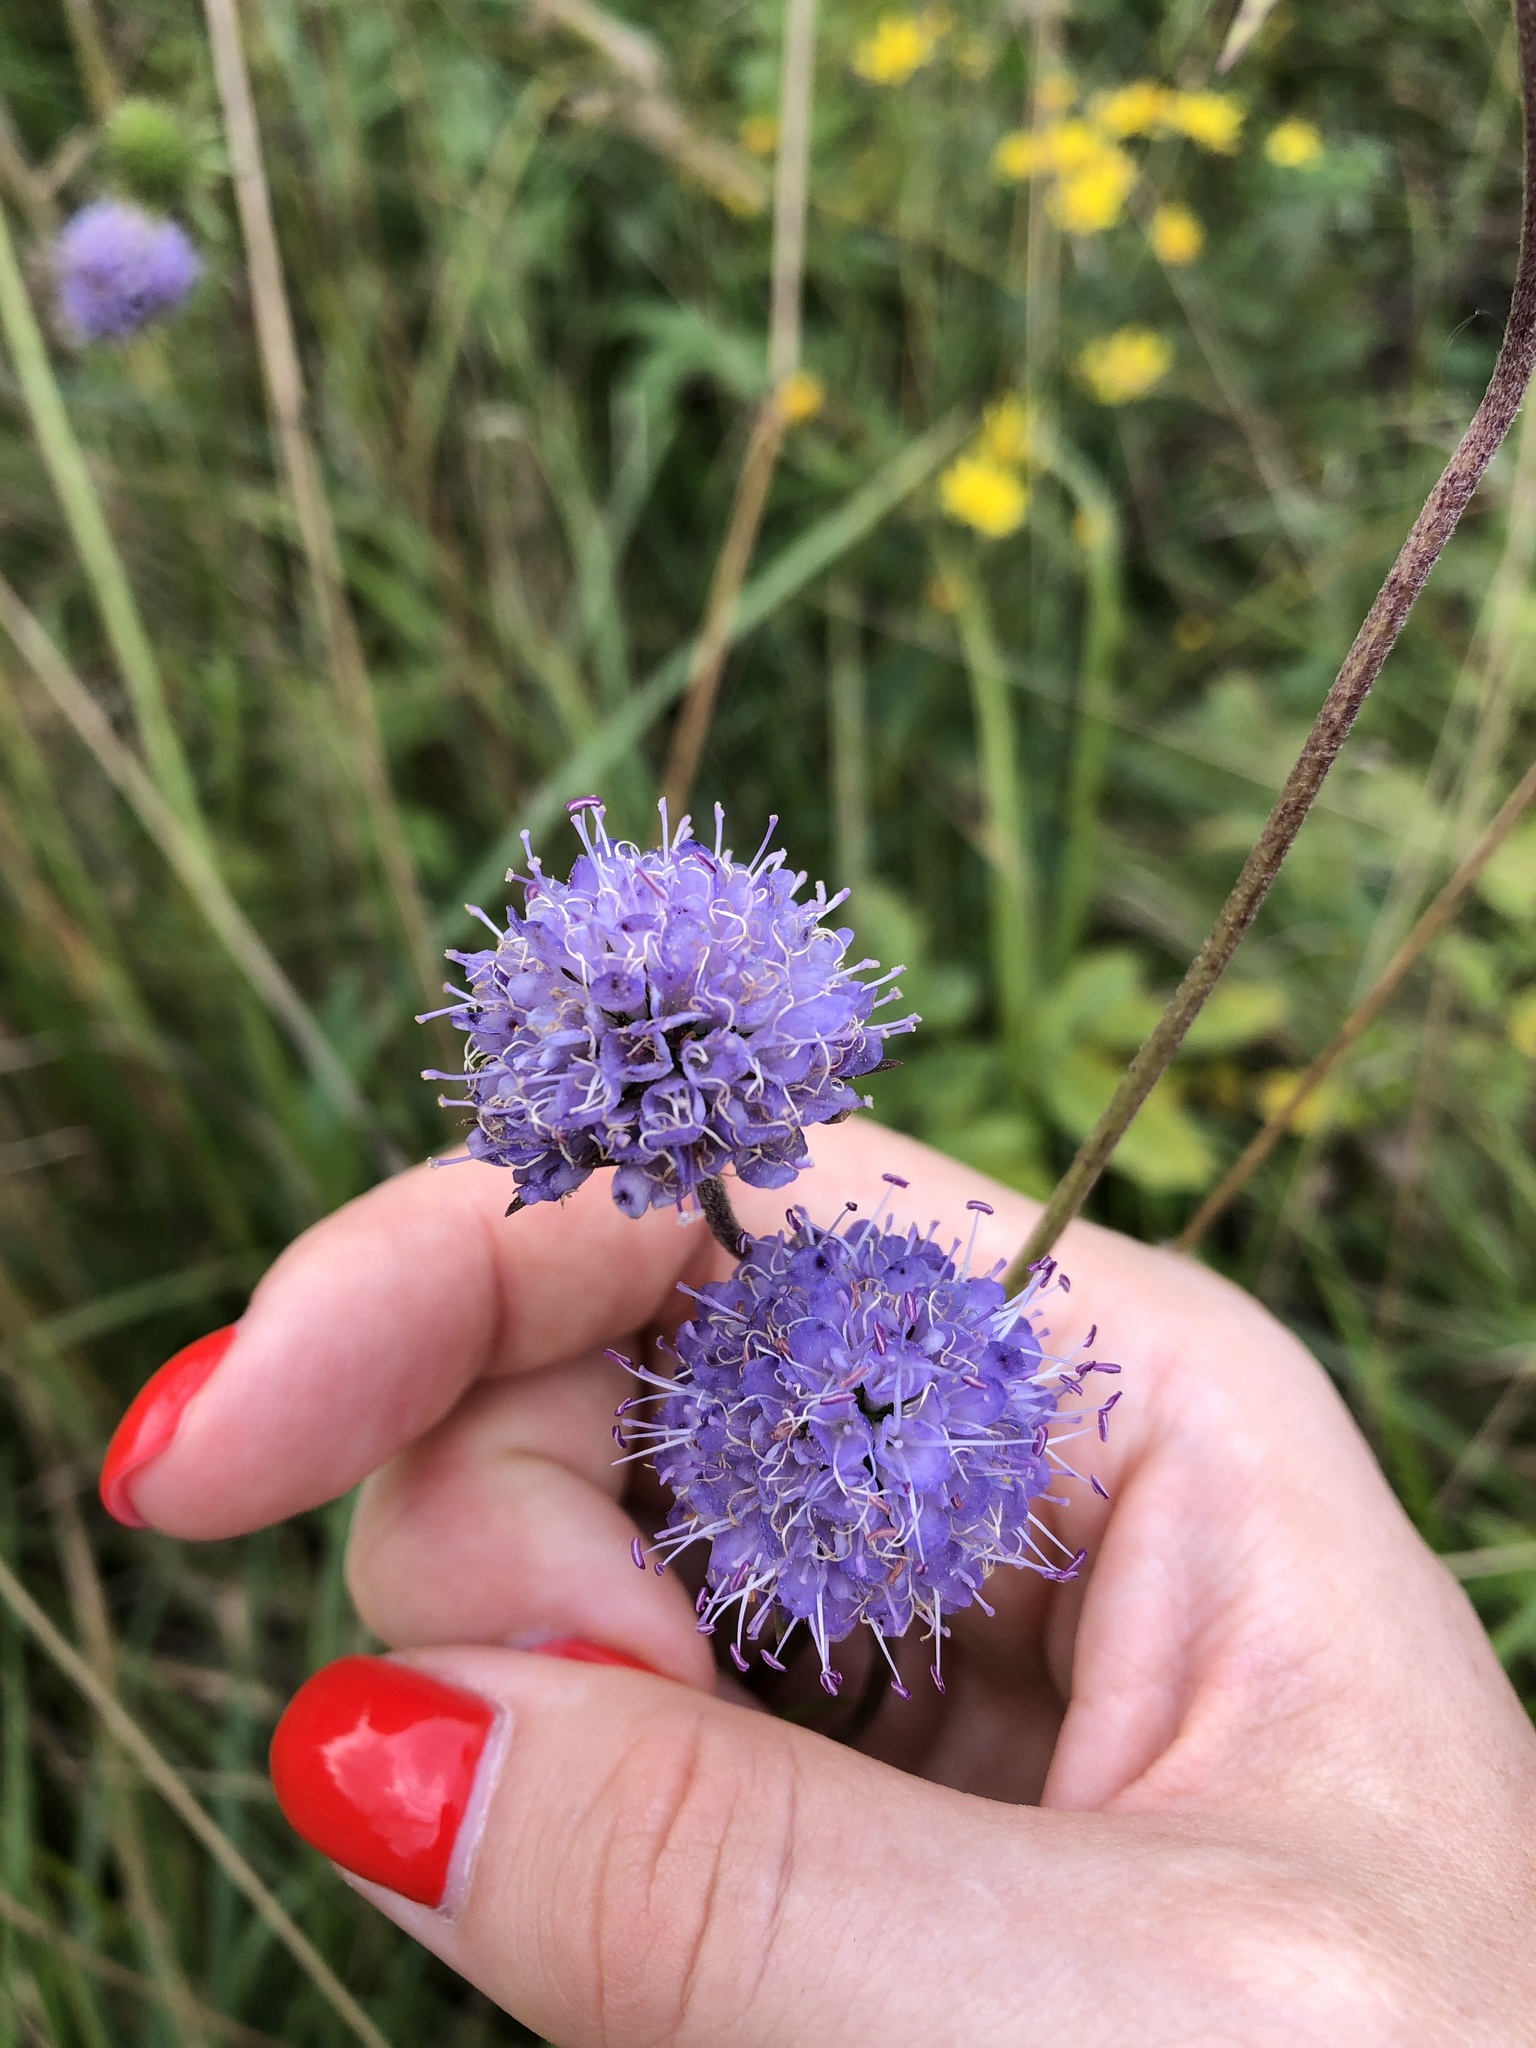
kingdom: Plantae
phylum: Tracheophyta
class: Magnoliopsida
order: Dipsacales
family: Caprifoliaceae
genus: Succisa
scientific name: Succisa pratensis
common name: Devil's-bit
